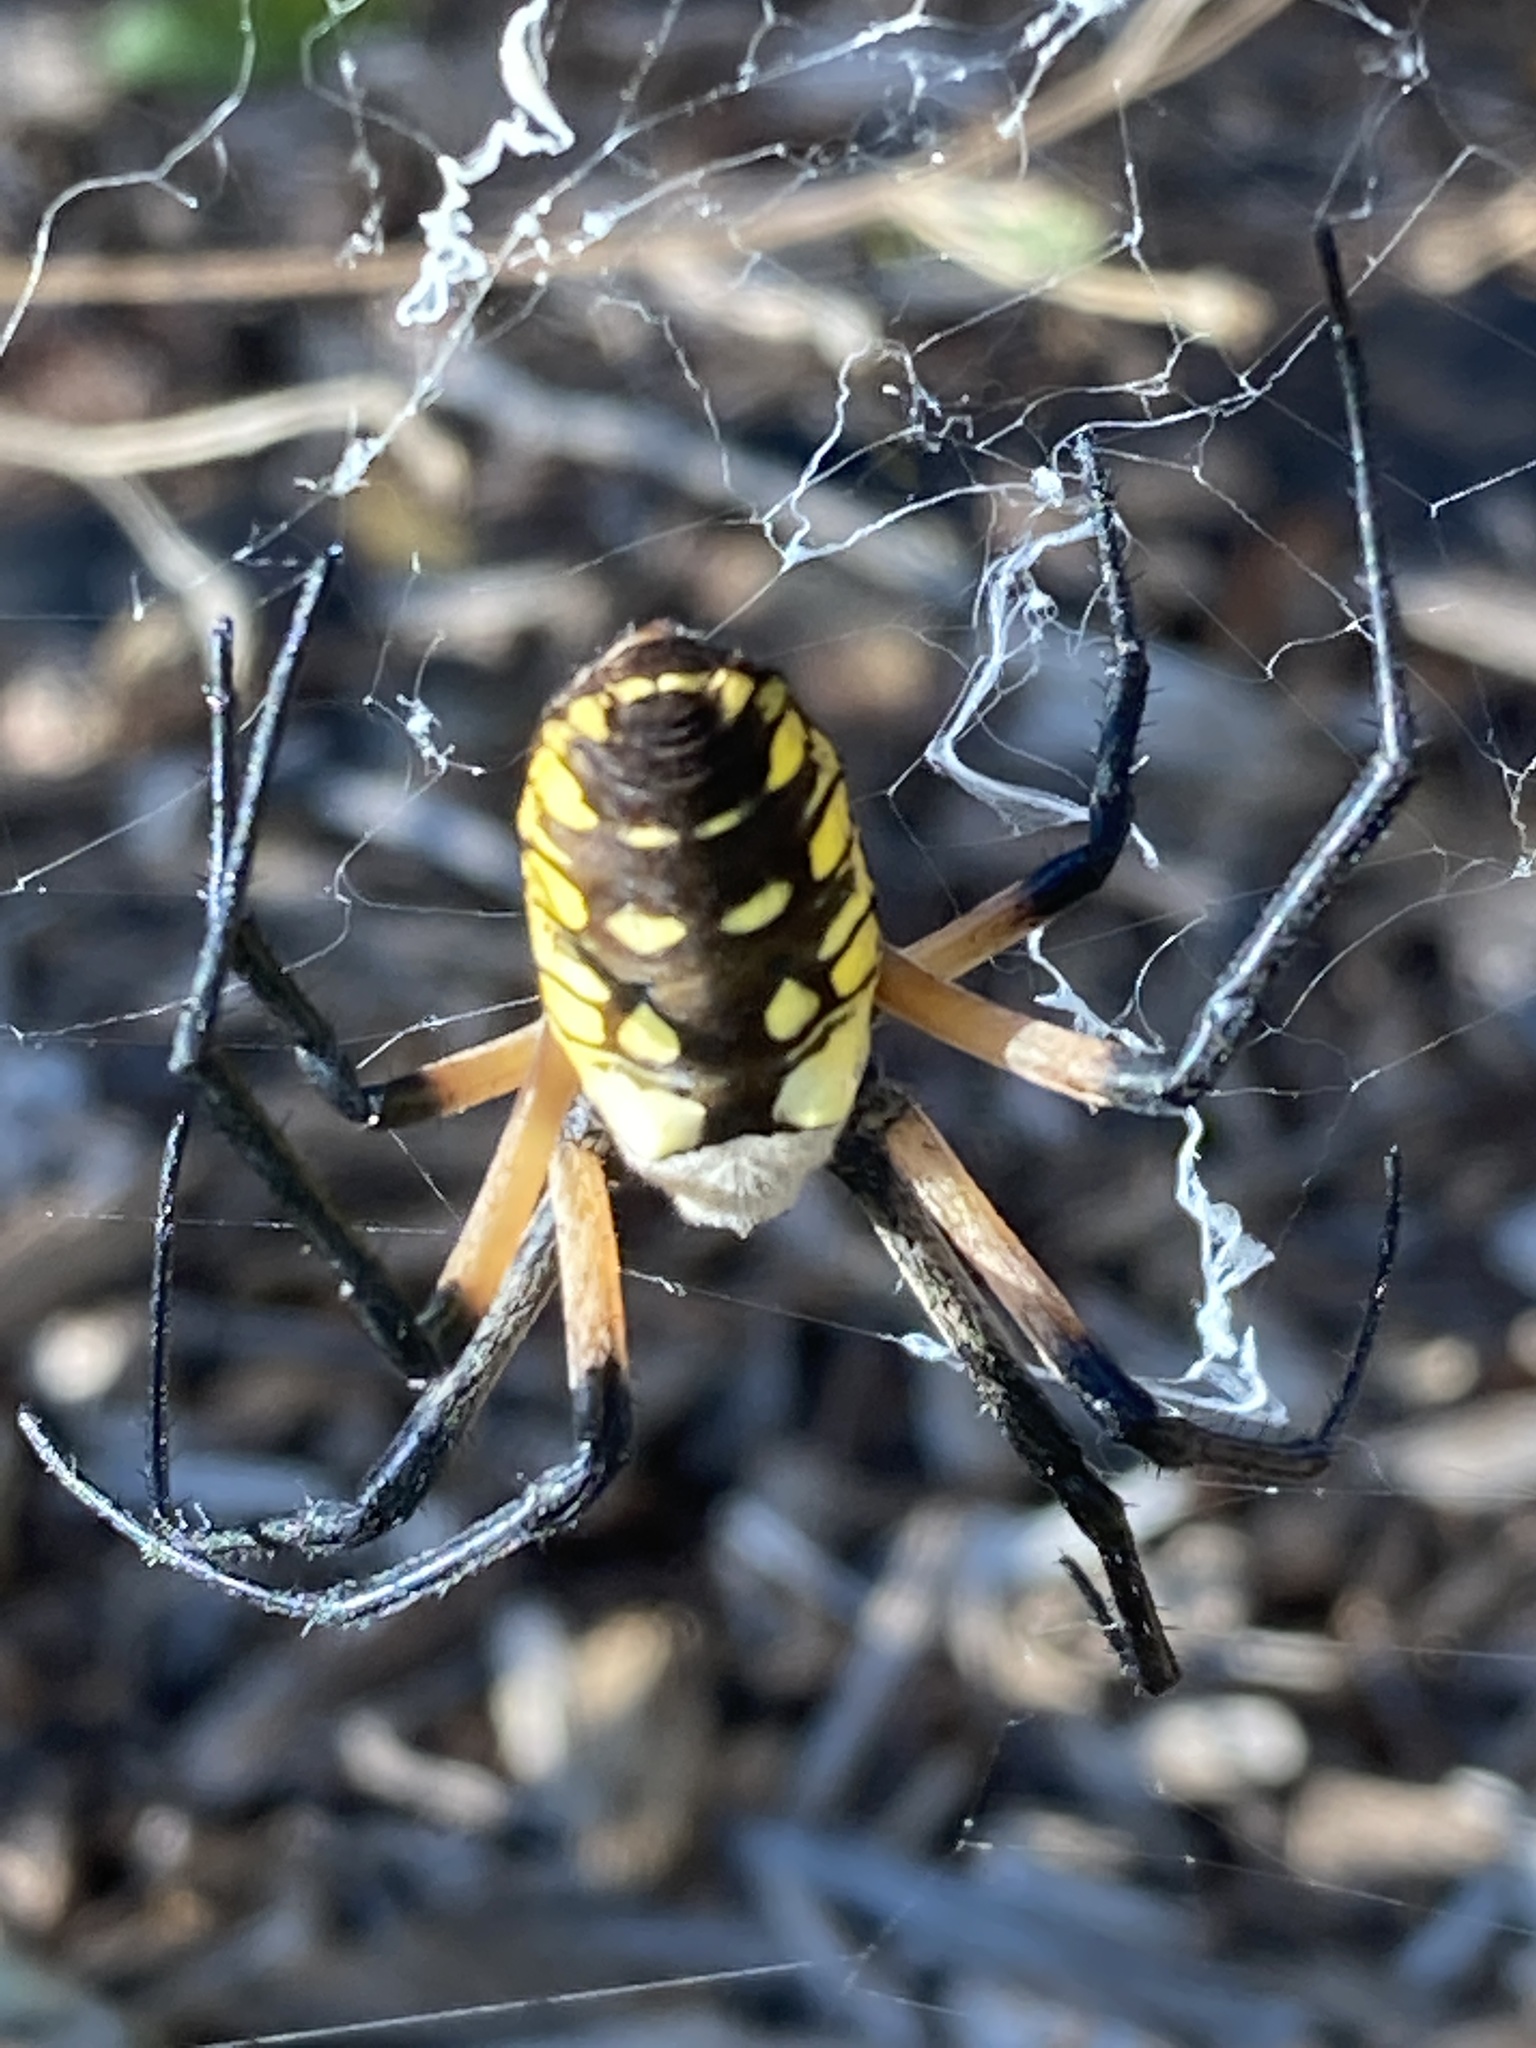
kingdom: Animalia
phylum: Arthropoda
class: Arachnida
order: Araneae
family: Araneidae
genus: Argiope
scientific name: Argiope aurantia
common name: Orb weavers
